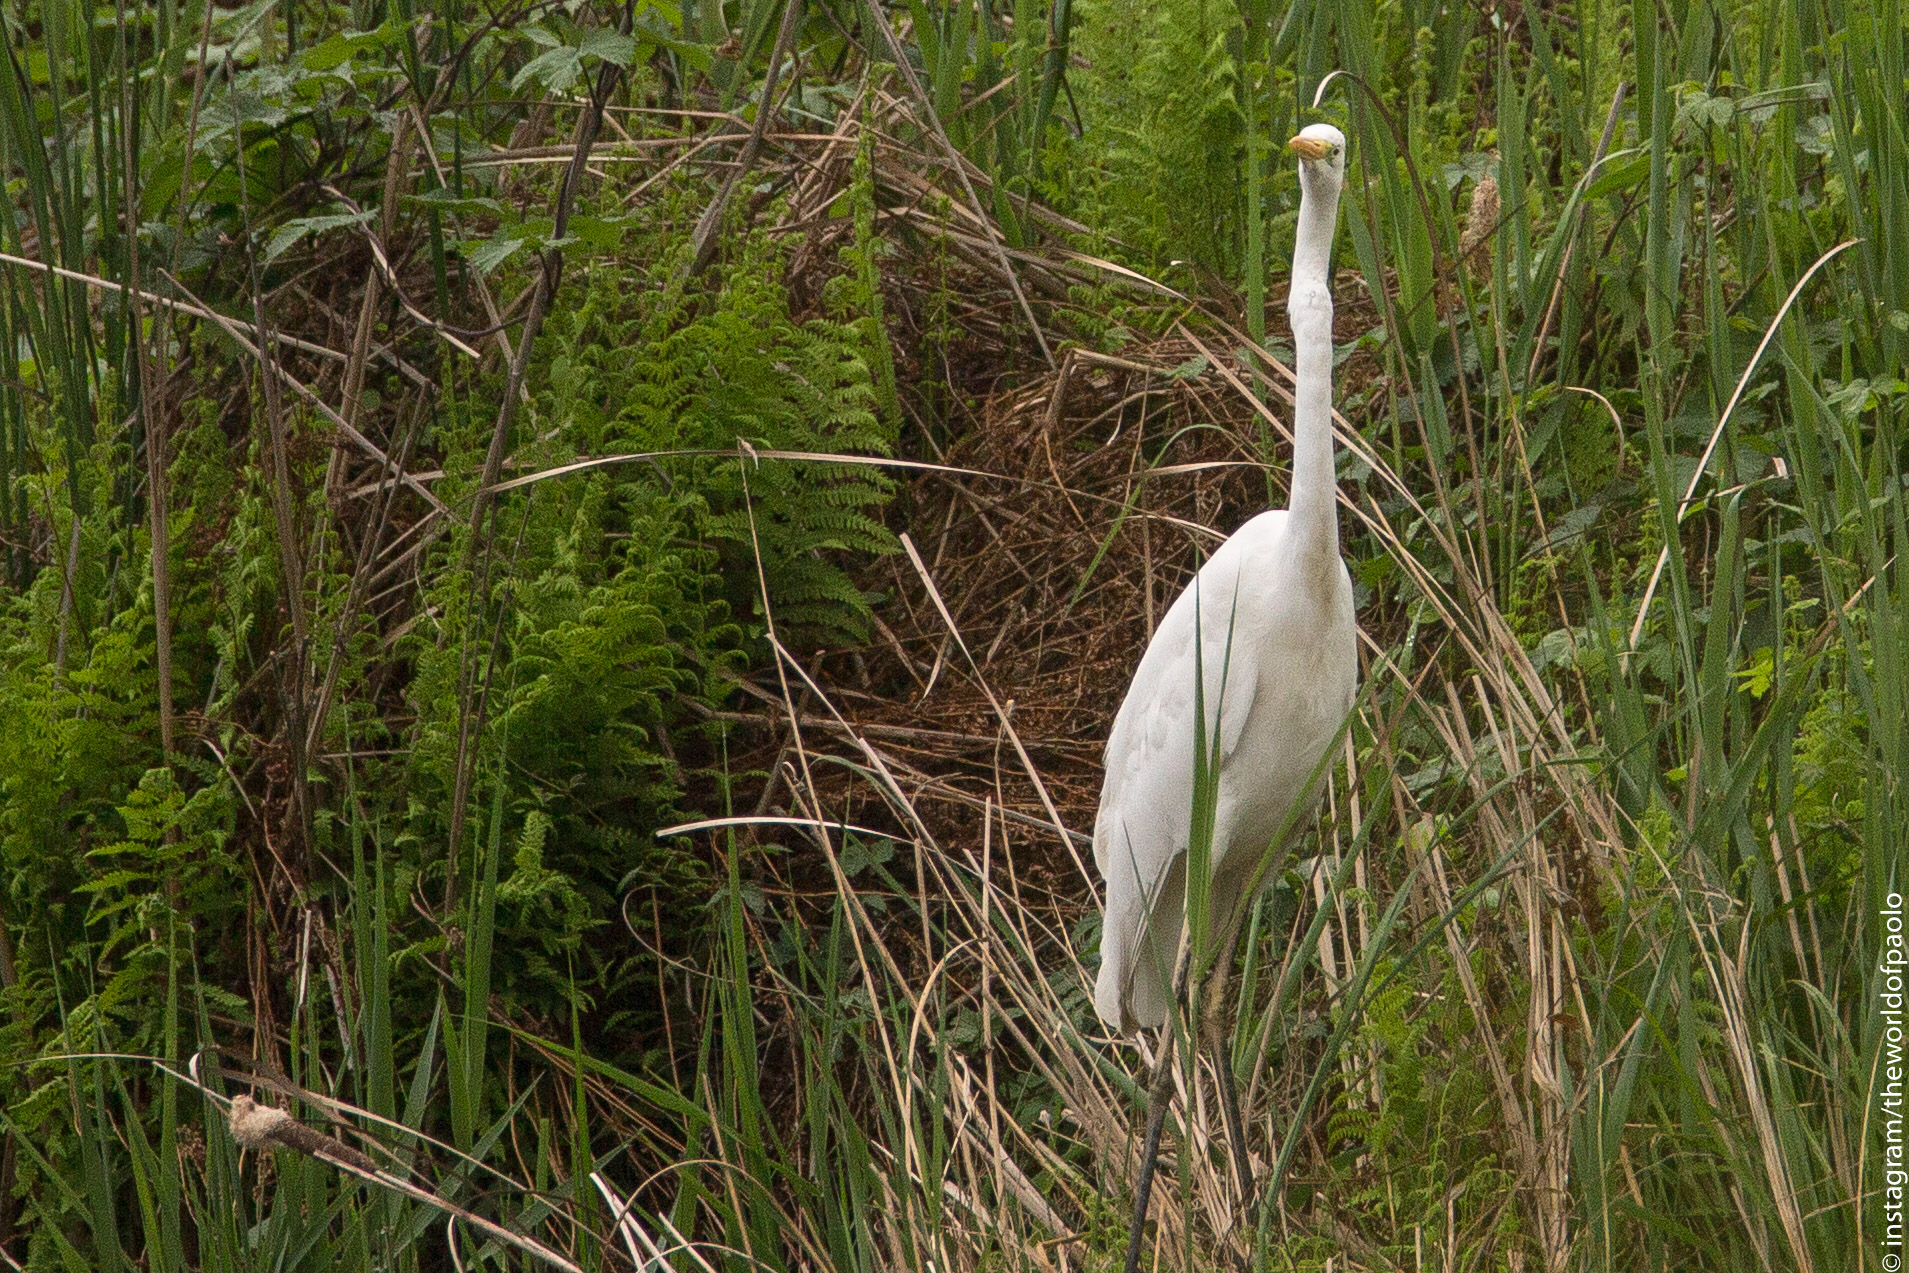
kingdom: Animalia
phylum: Chordata
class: Aves
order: Pelecaniformes
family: Ardeidae
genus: Ardea
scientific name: Ardea alba
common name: Great egret
